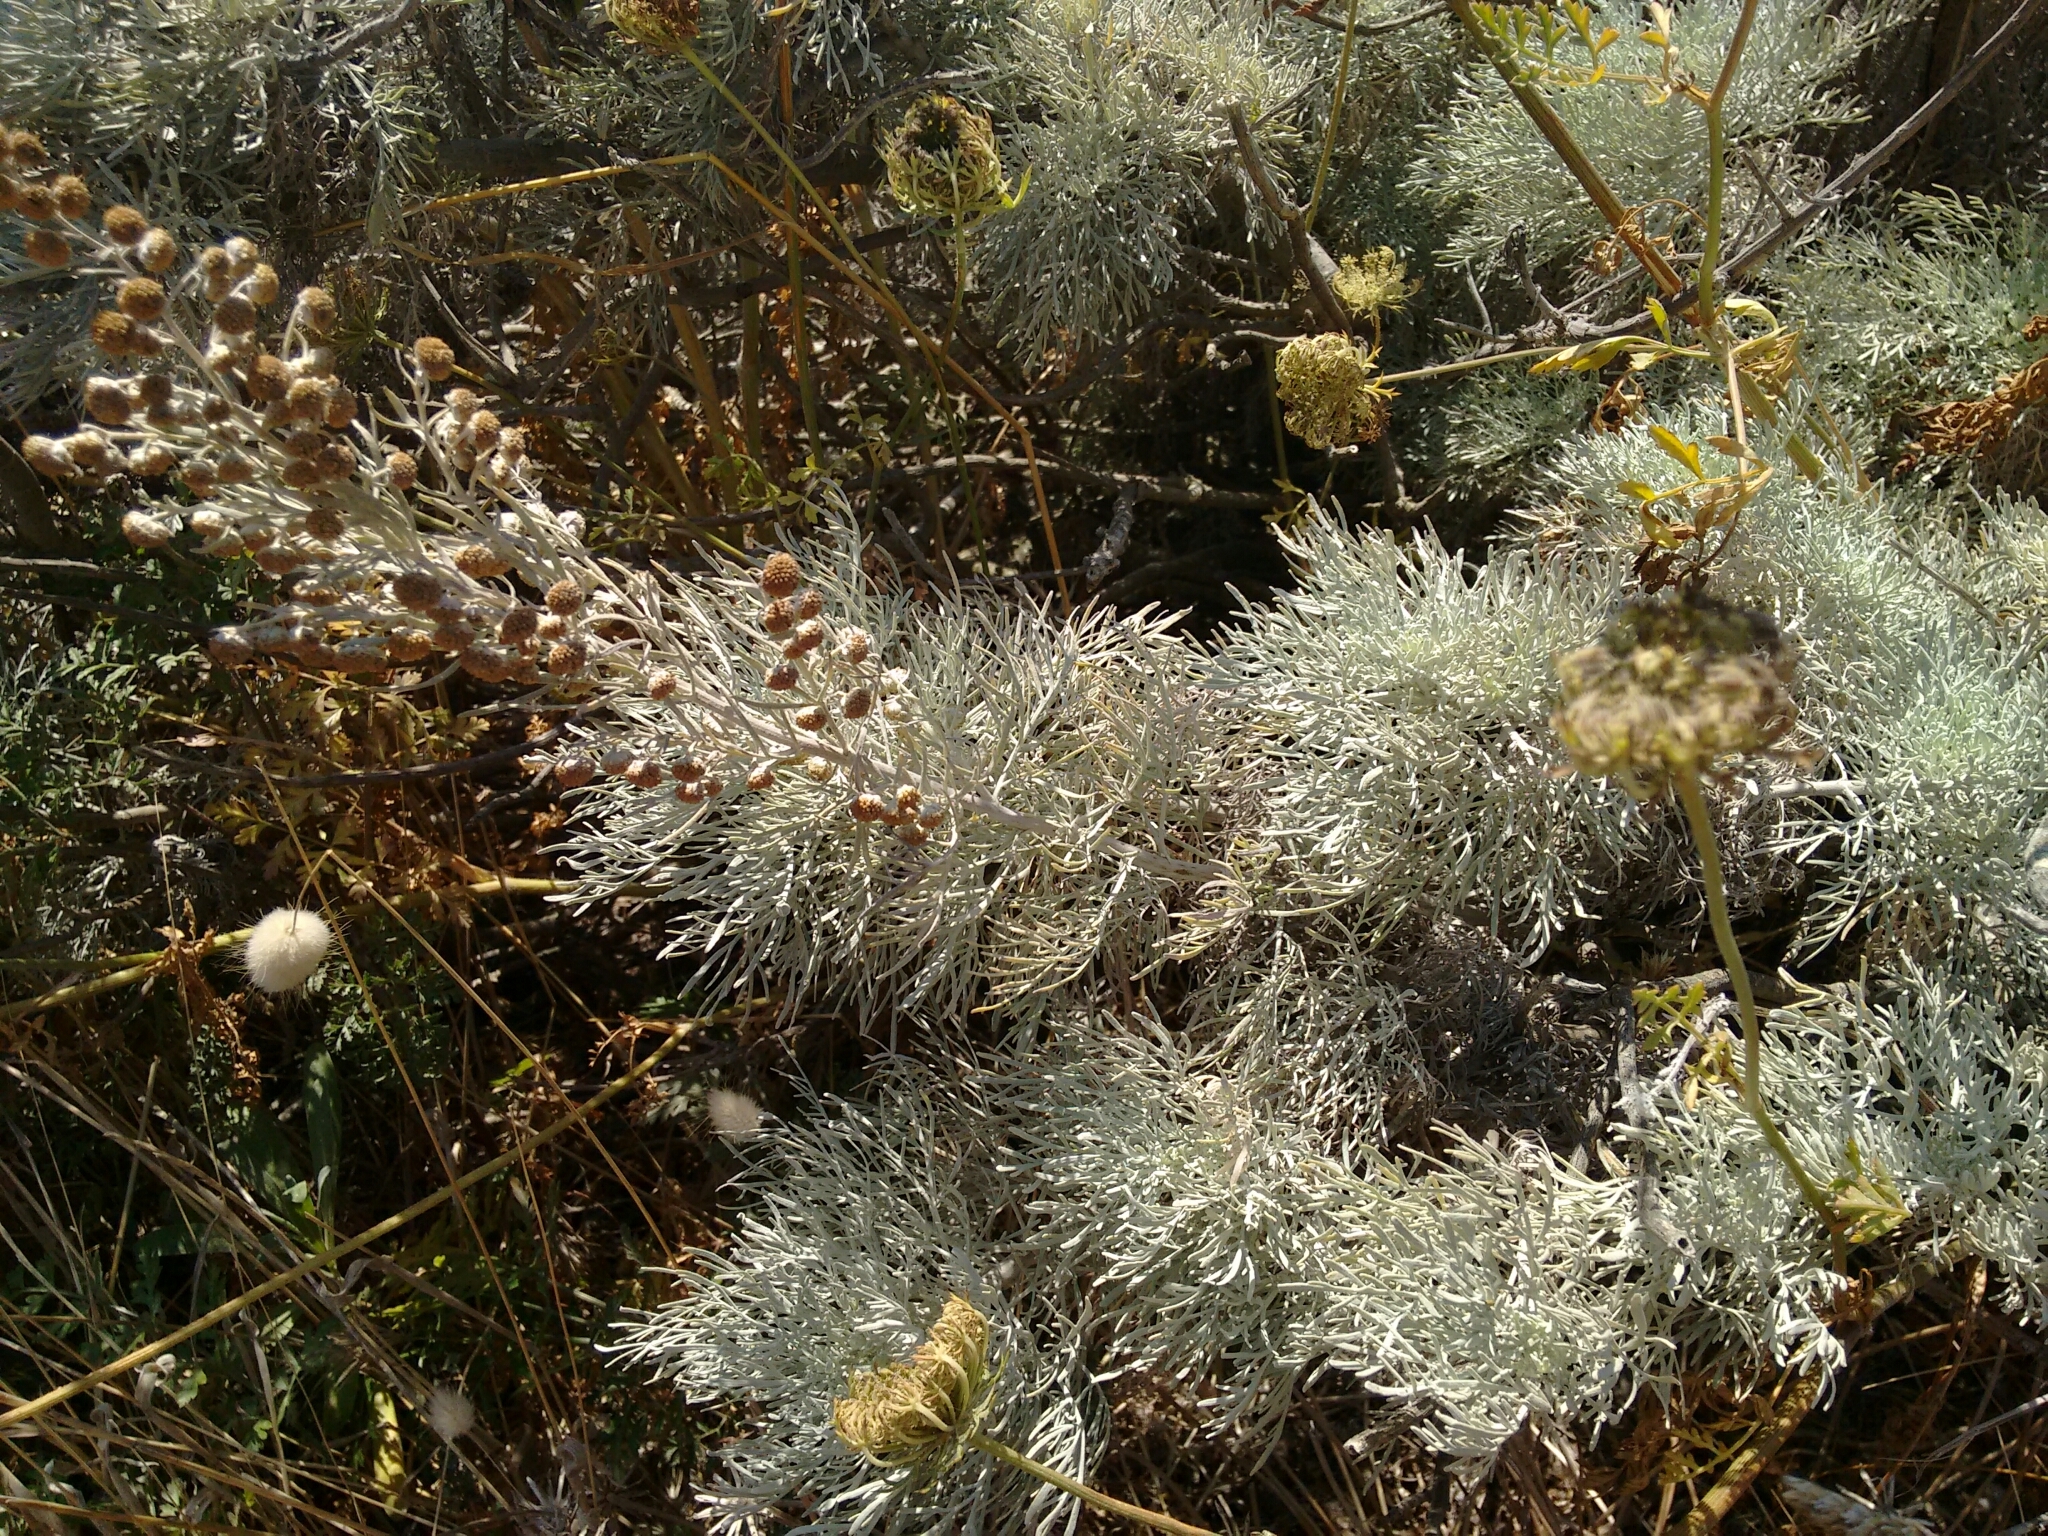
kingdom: Plantae
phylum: Tracheophyta
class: Magnoliopsida
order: Asterales
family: Asteraceae
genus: Artemisia
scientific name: Artemisia arborescens
